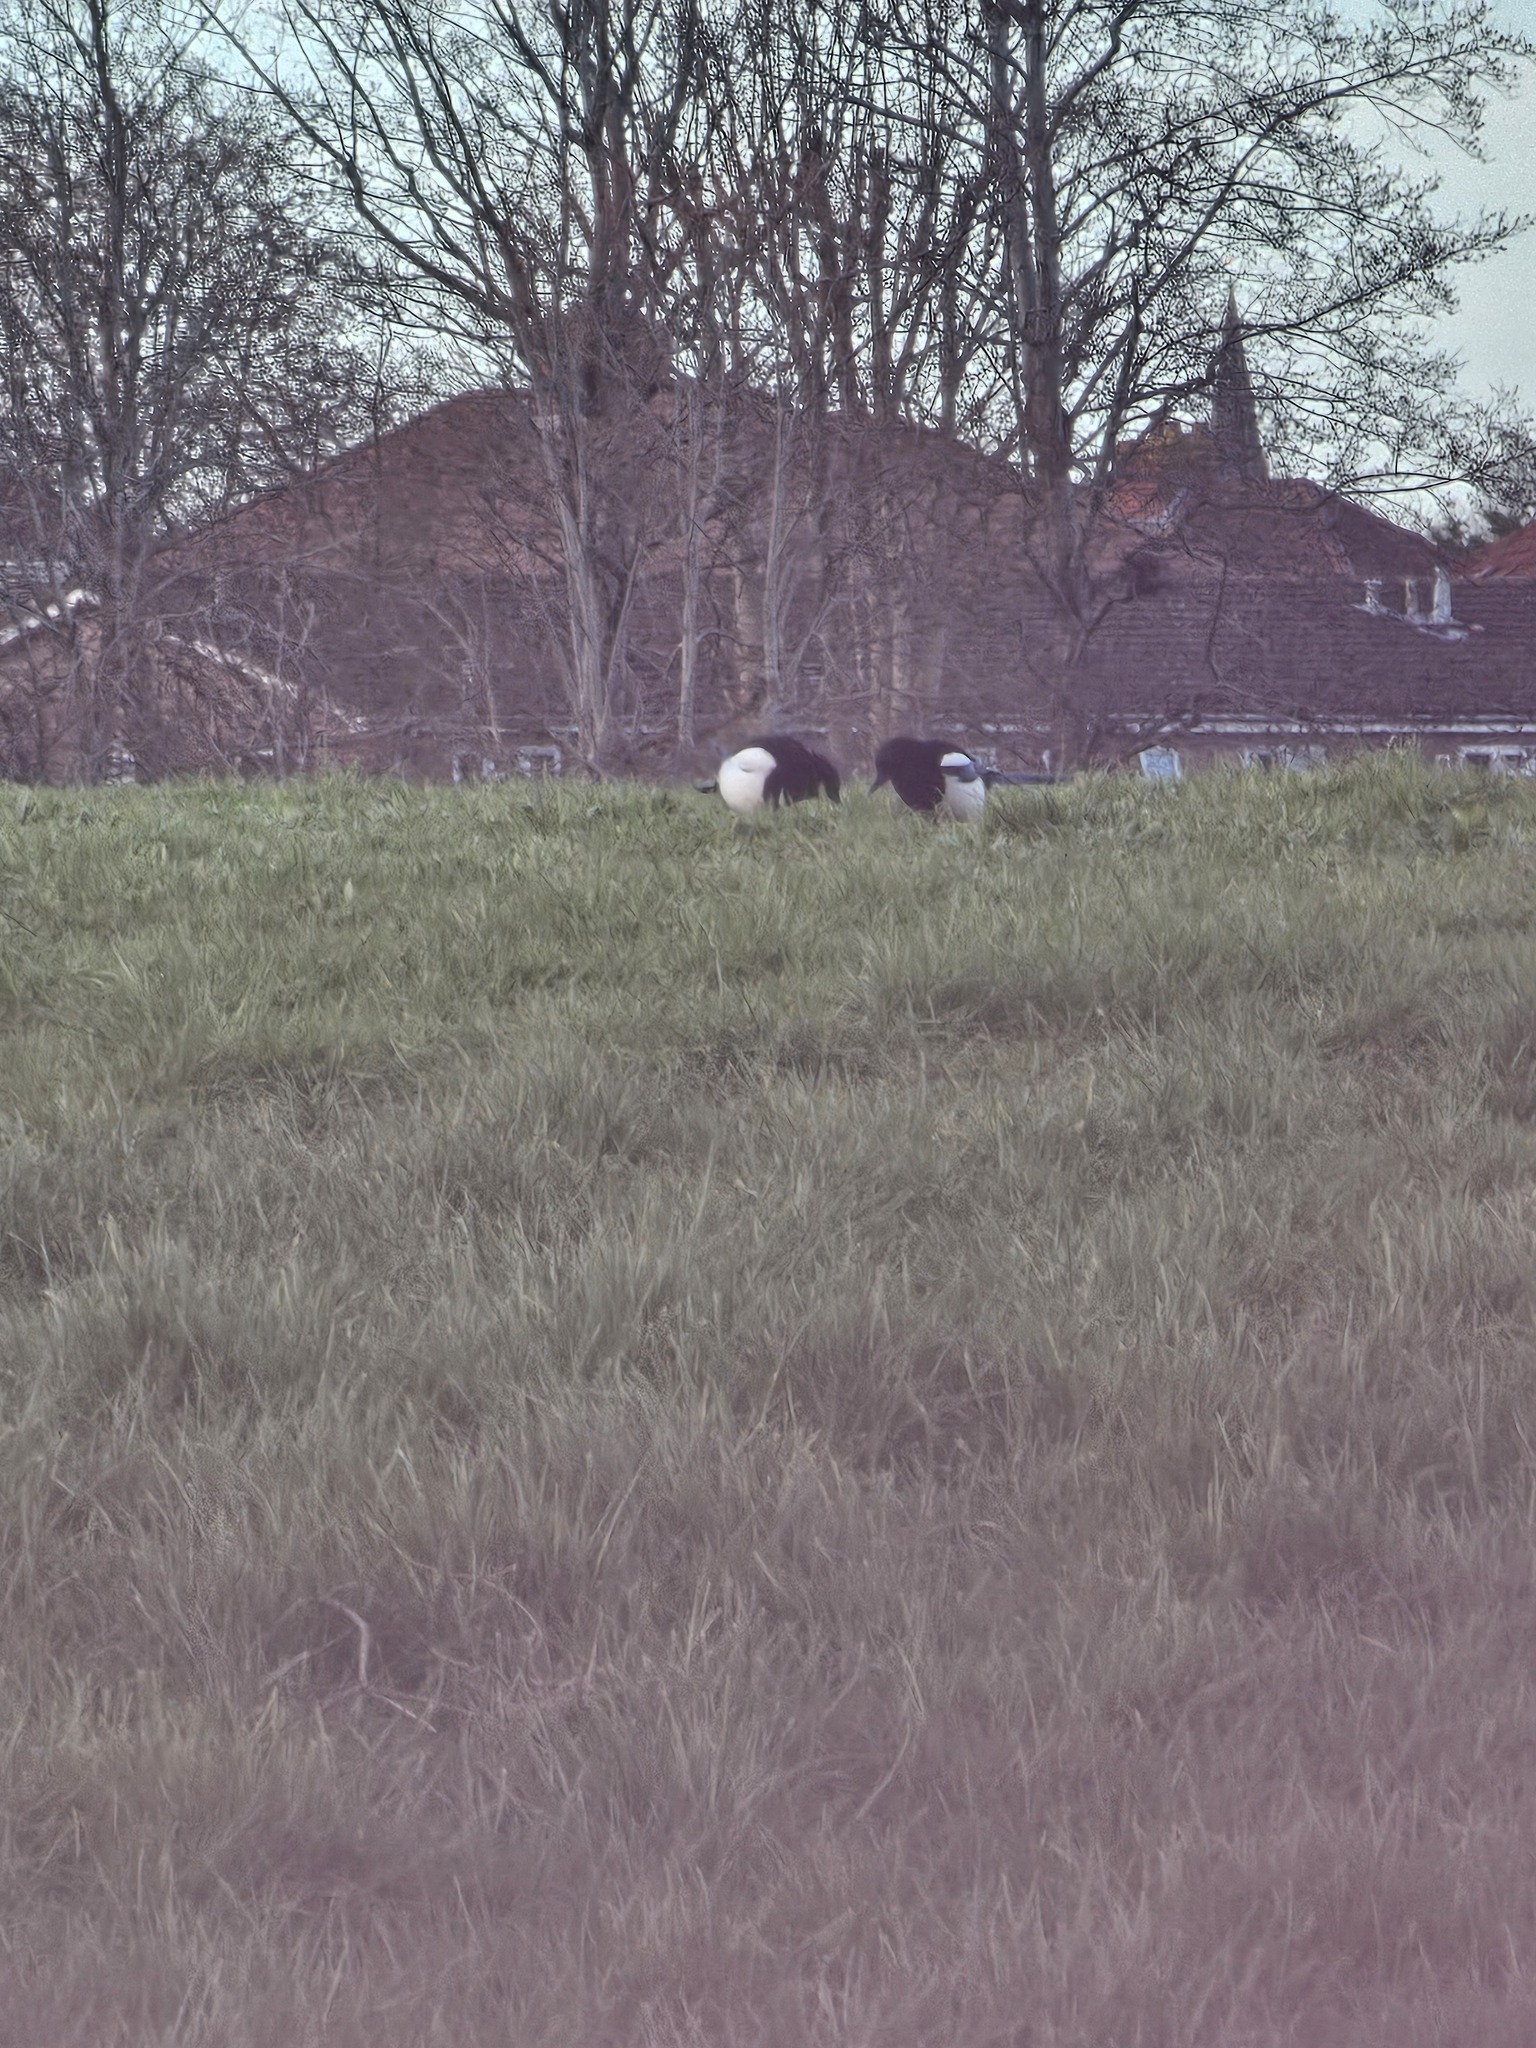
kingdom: Animalia
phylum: Chordata
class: Aves
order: Passeriformes
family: Corvidae
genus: Pica
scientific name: Pica pica
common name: Eurasian magpie
